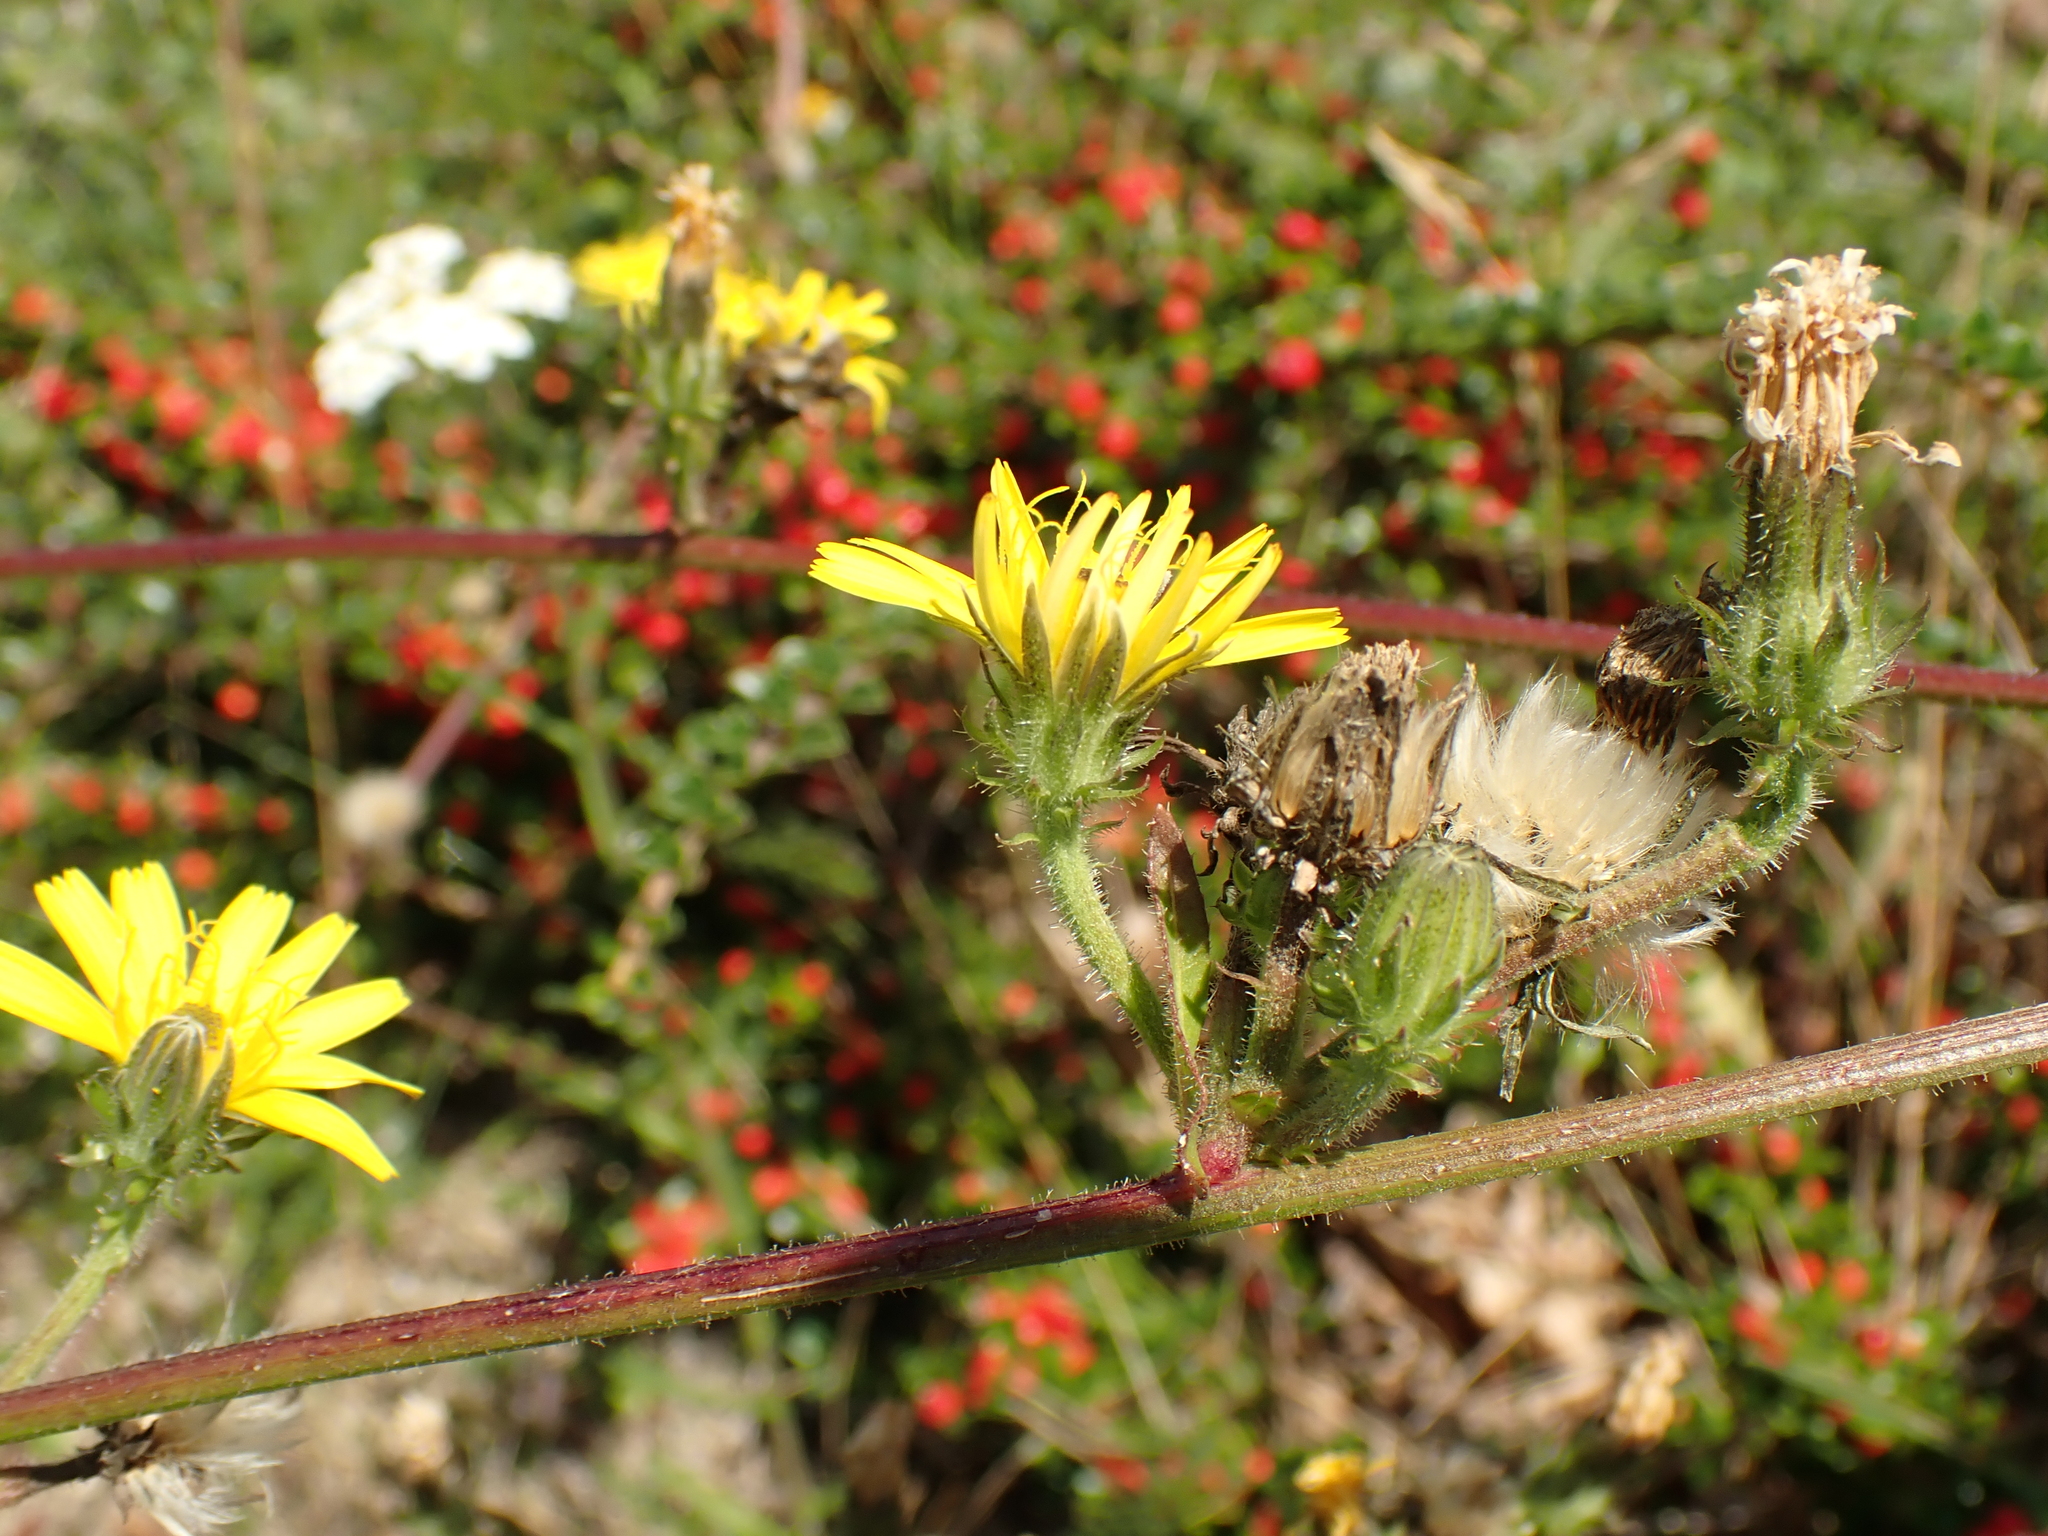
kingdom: Plantae
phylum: Tracheophyta
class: Magnoliopsida
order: Asterales
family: Asteraceae
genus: Picris
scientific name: Picris hieracioides
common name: Hawkweed oxtongue
